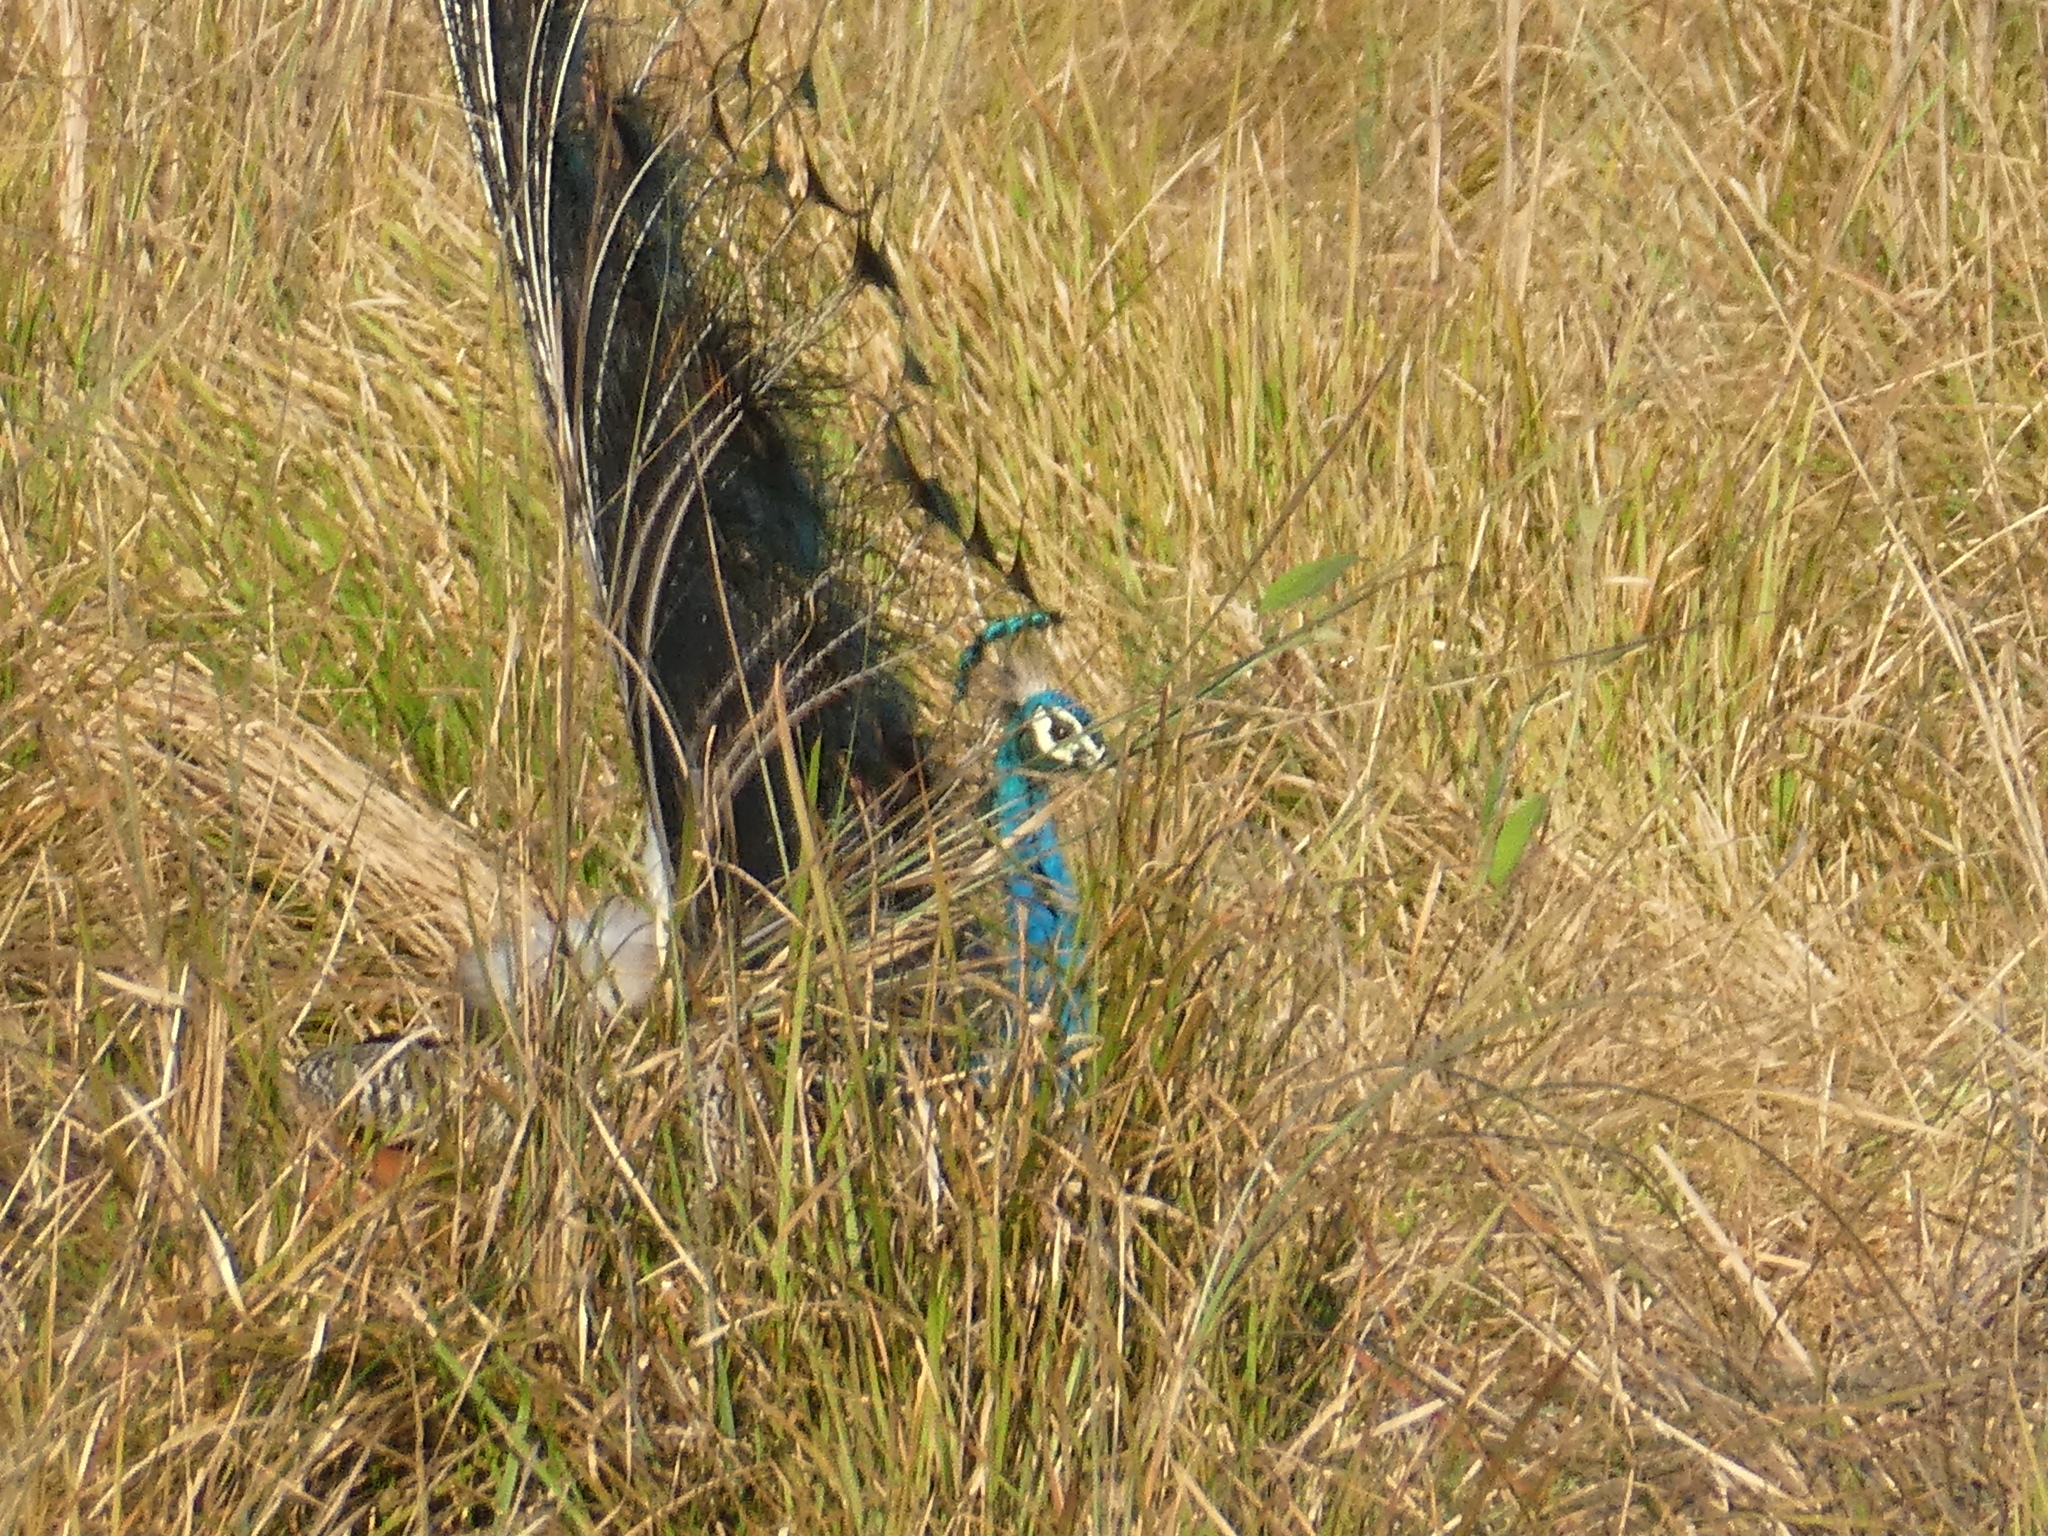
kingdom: Animalia
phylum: Chordata
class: Aves
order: Galliformes
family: Phasianidae
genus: Pavo
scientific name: Pavo cristatus
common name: Indian peafowl
